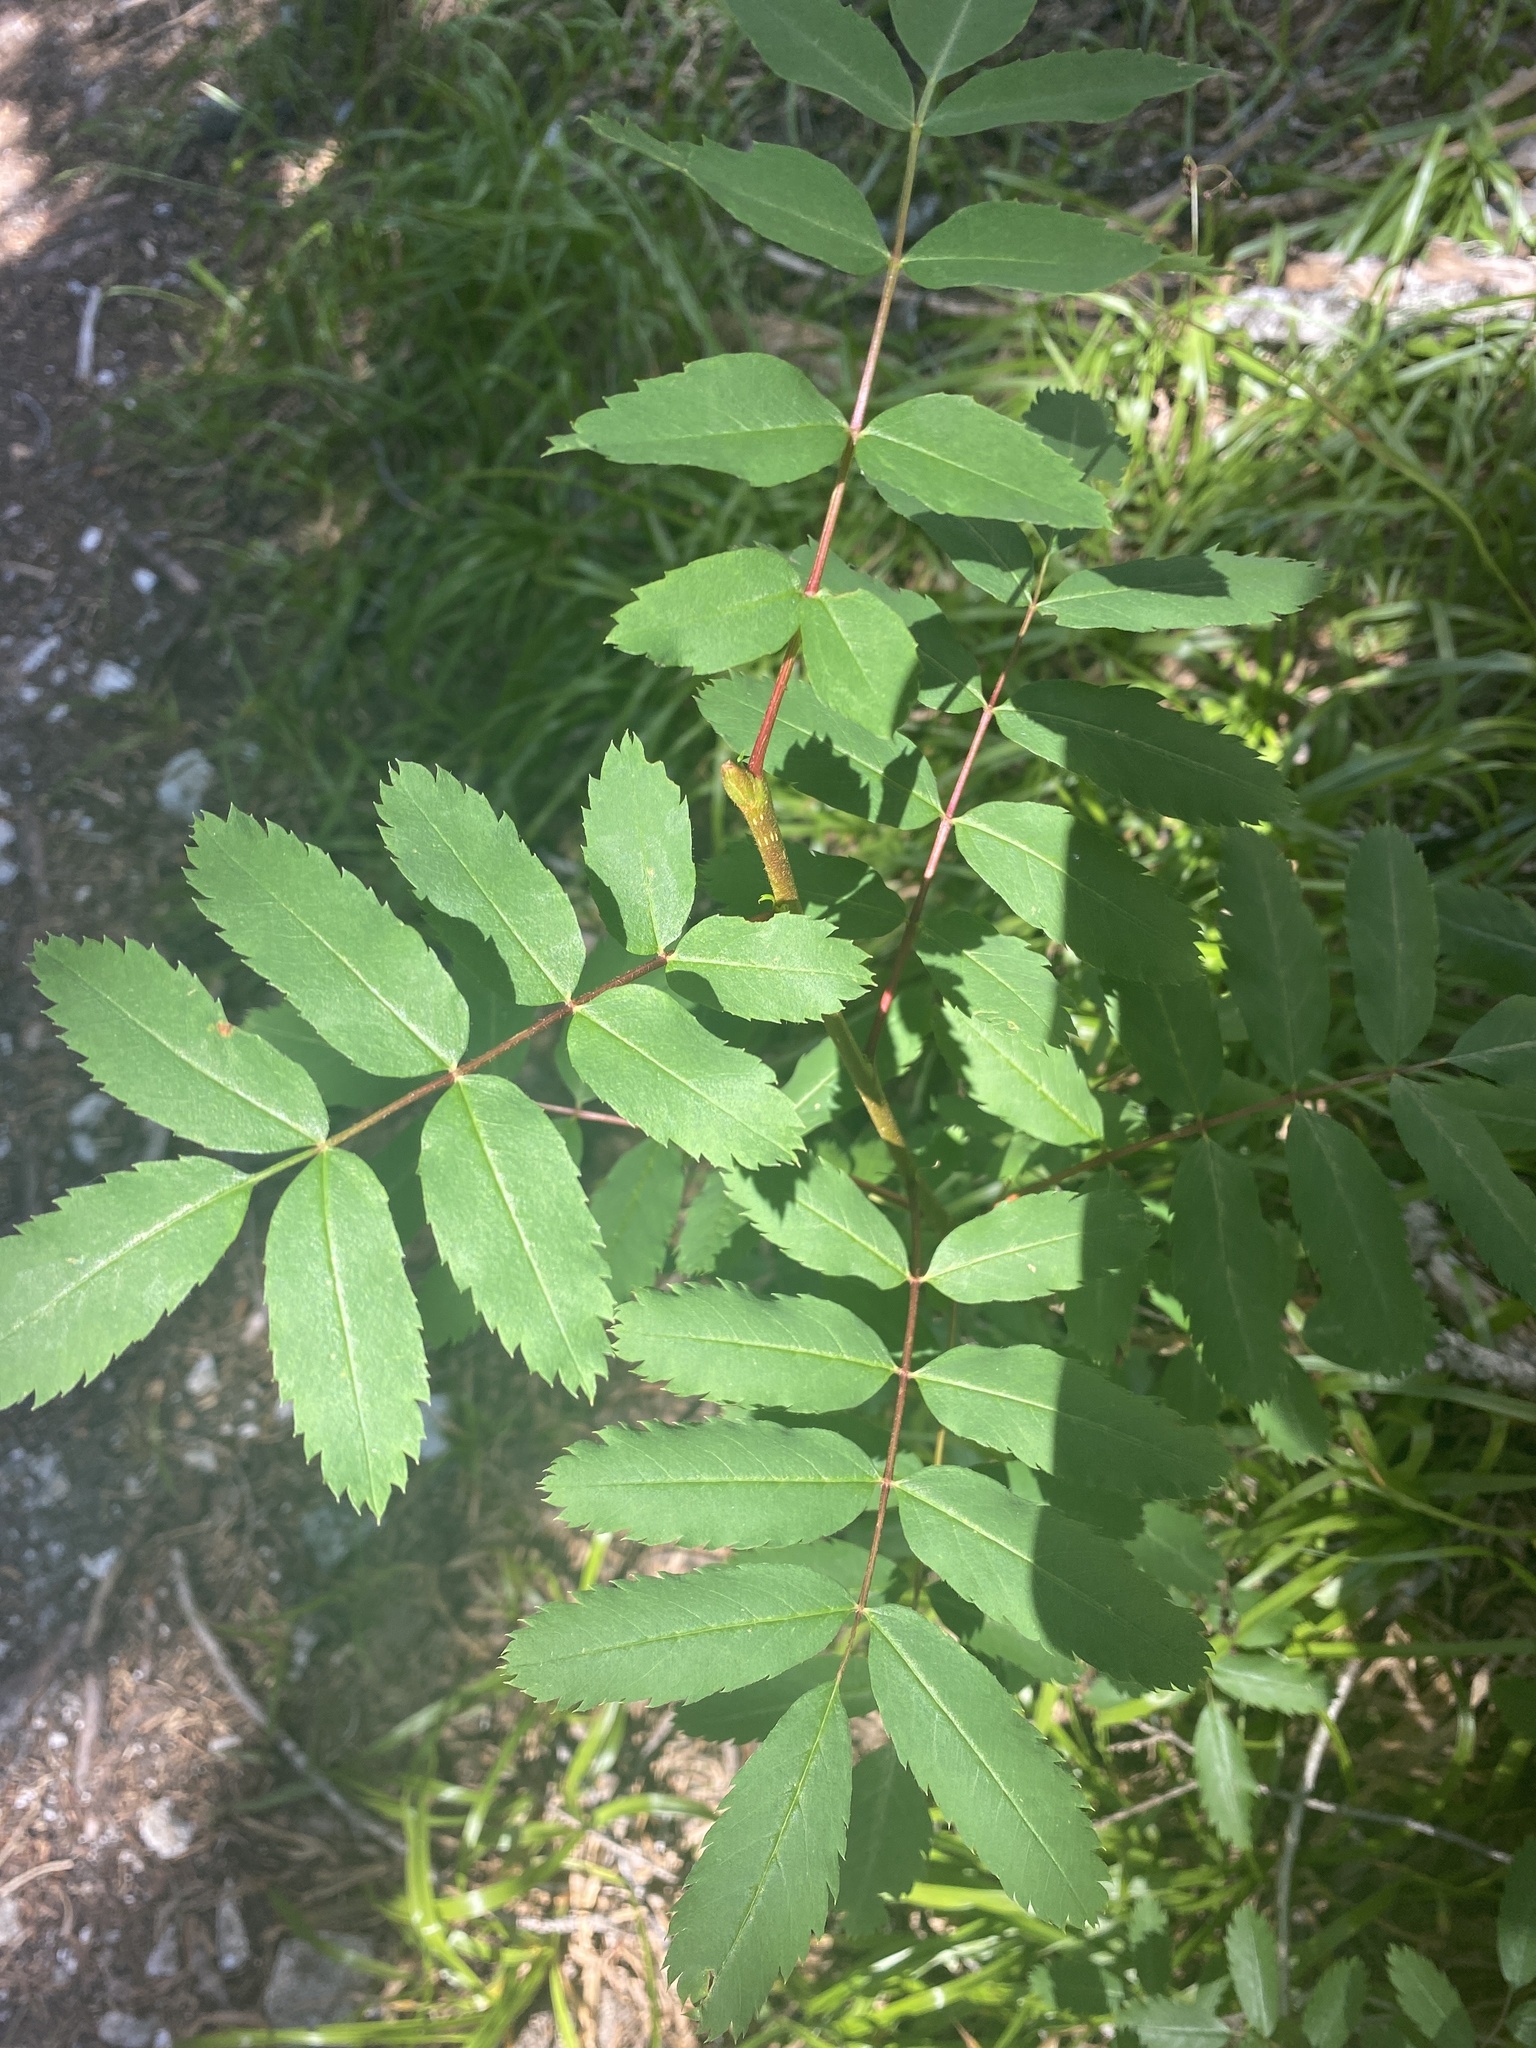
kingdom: Plantae
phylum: Tracheophyta
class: Magnoliopsida
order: Rosales
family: Rosaceae
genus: Sorbus
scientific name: Sorbus sitchensis
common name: Sitka mountain-ash
